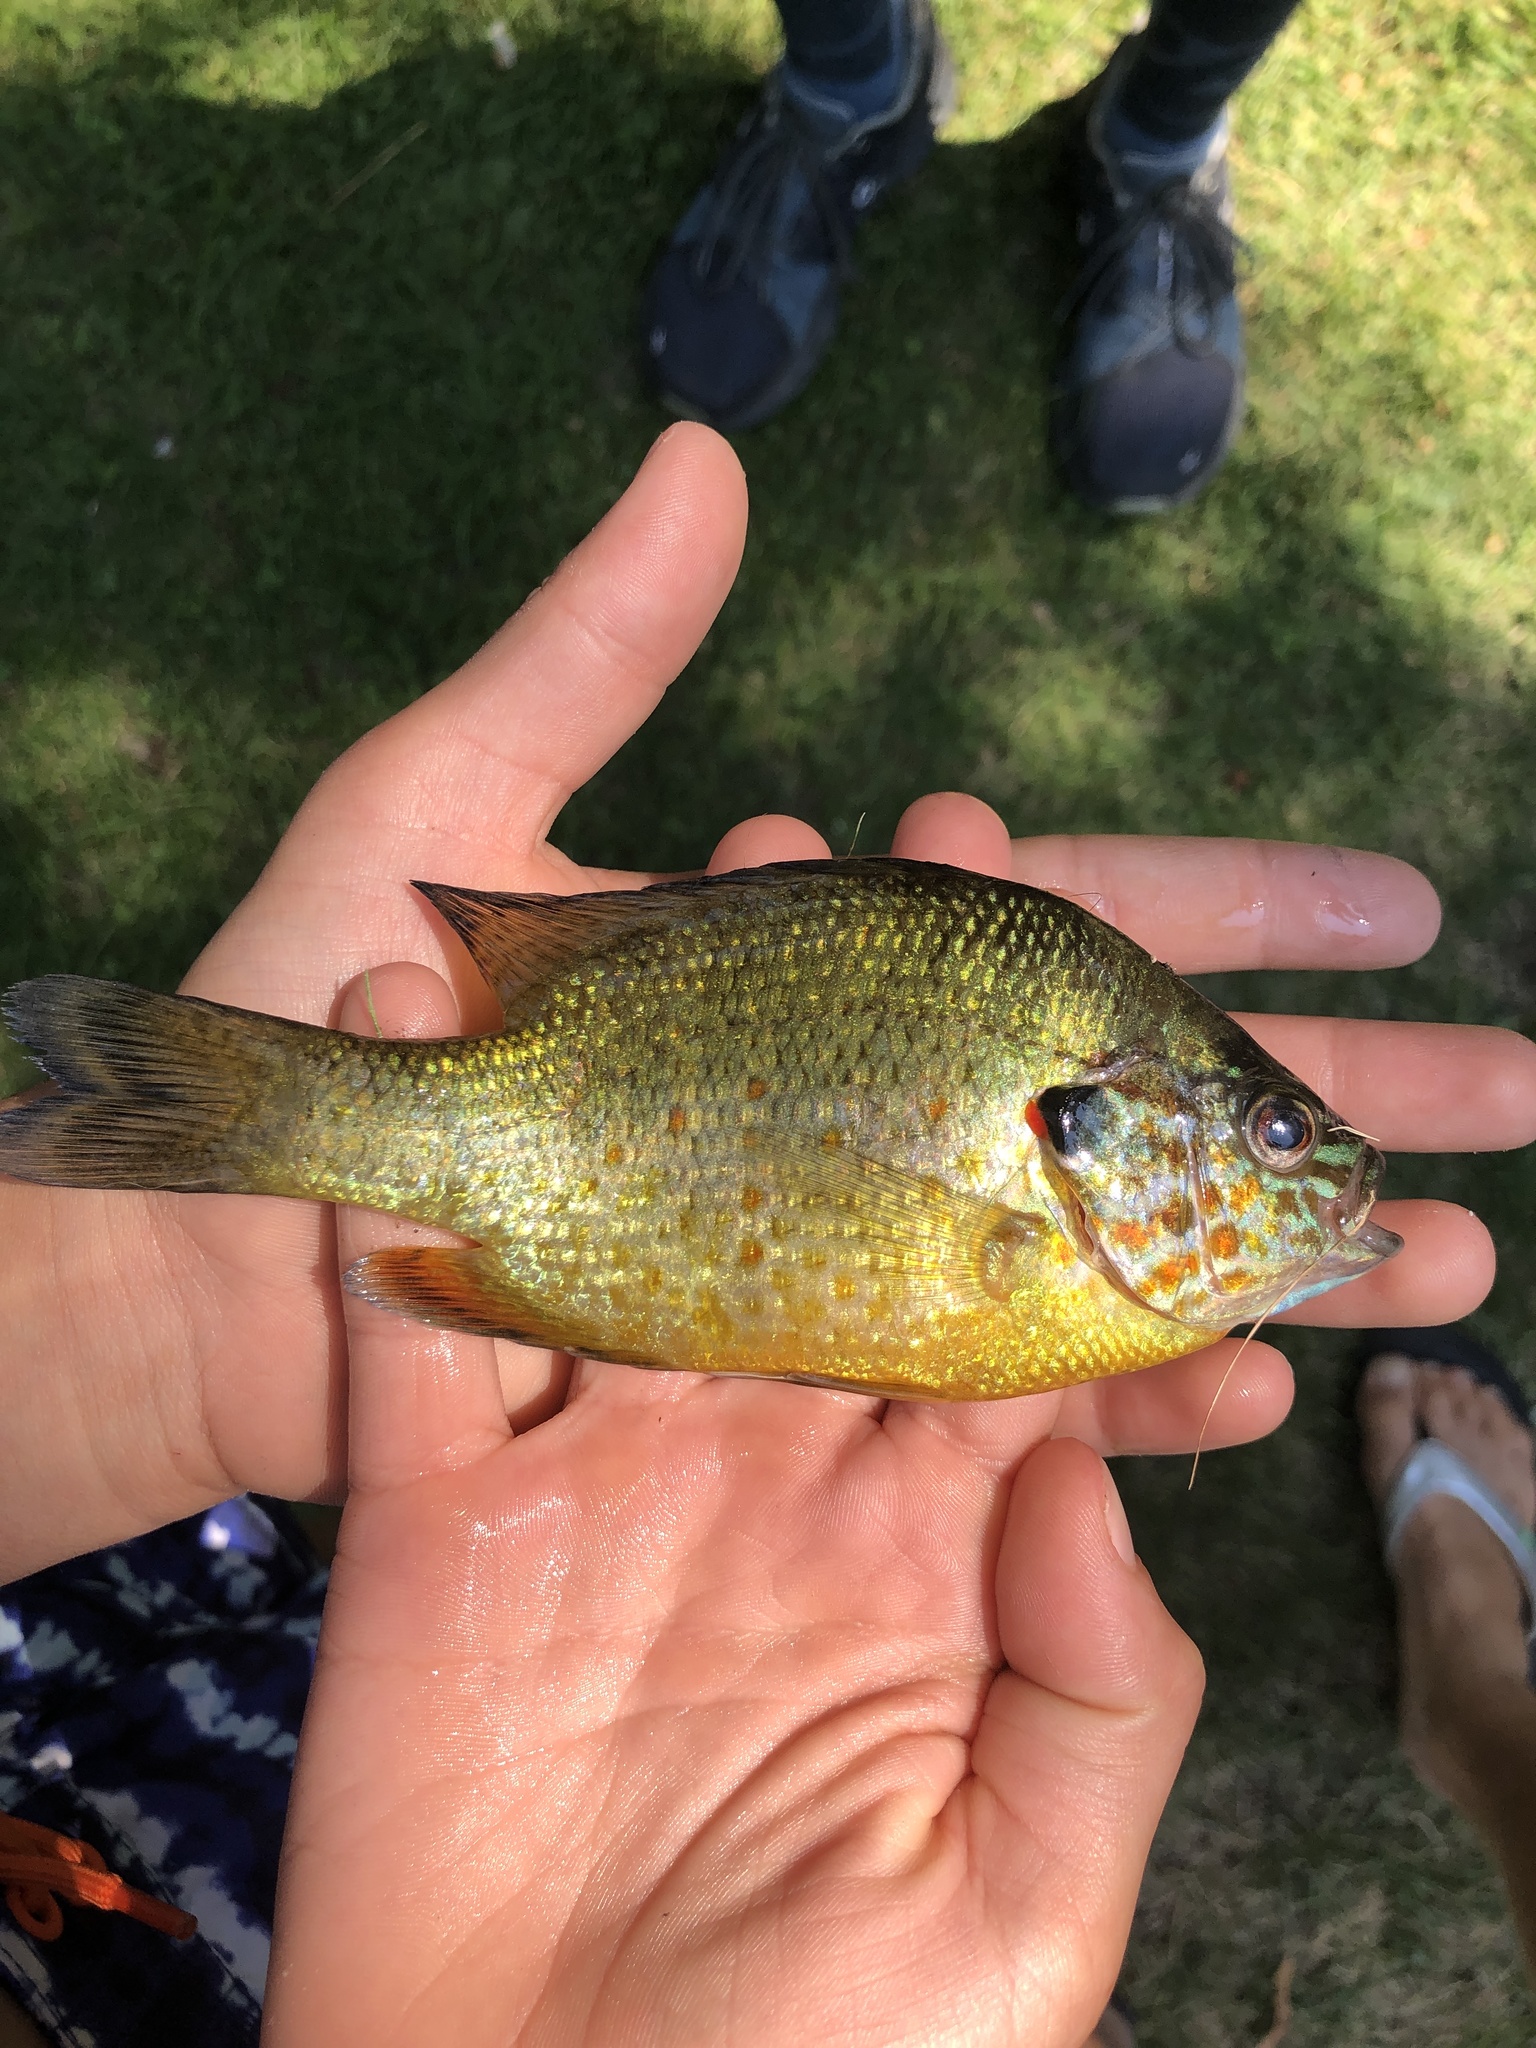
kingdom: Animalia
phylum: Chordata
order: Perciformes
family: Centrarchidae
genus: Lepomis
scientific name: Lepomis gibbosus
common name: Pumpkinseed
